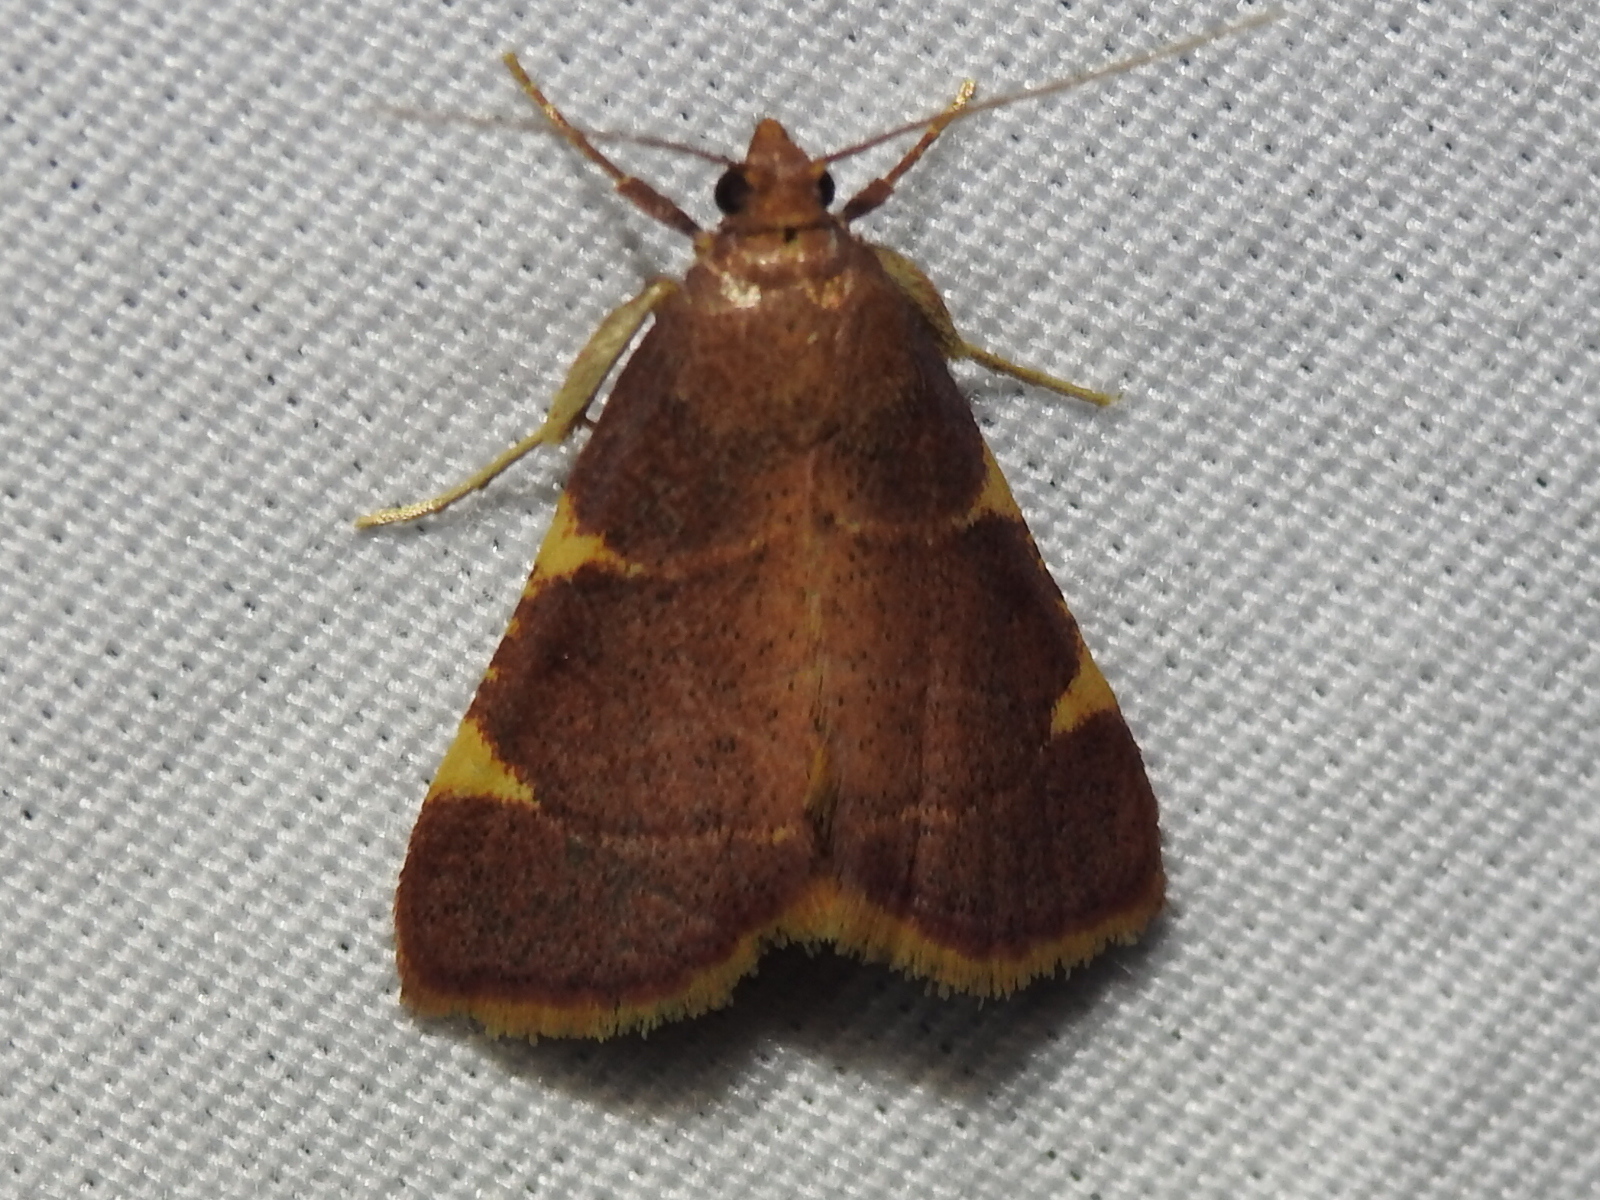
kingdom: Animalia
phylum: Arthropoda
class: Insecta
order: Lepidoptera
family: Pyralidae
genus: Hypsopygia
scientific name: Hypsopygia olinalis
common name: Yellow-fringed dolichomia moth
